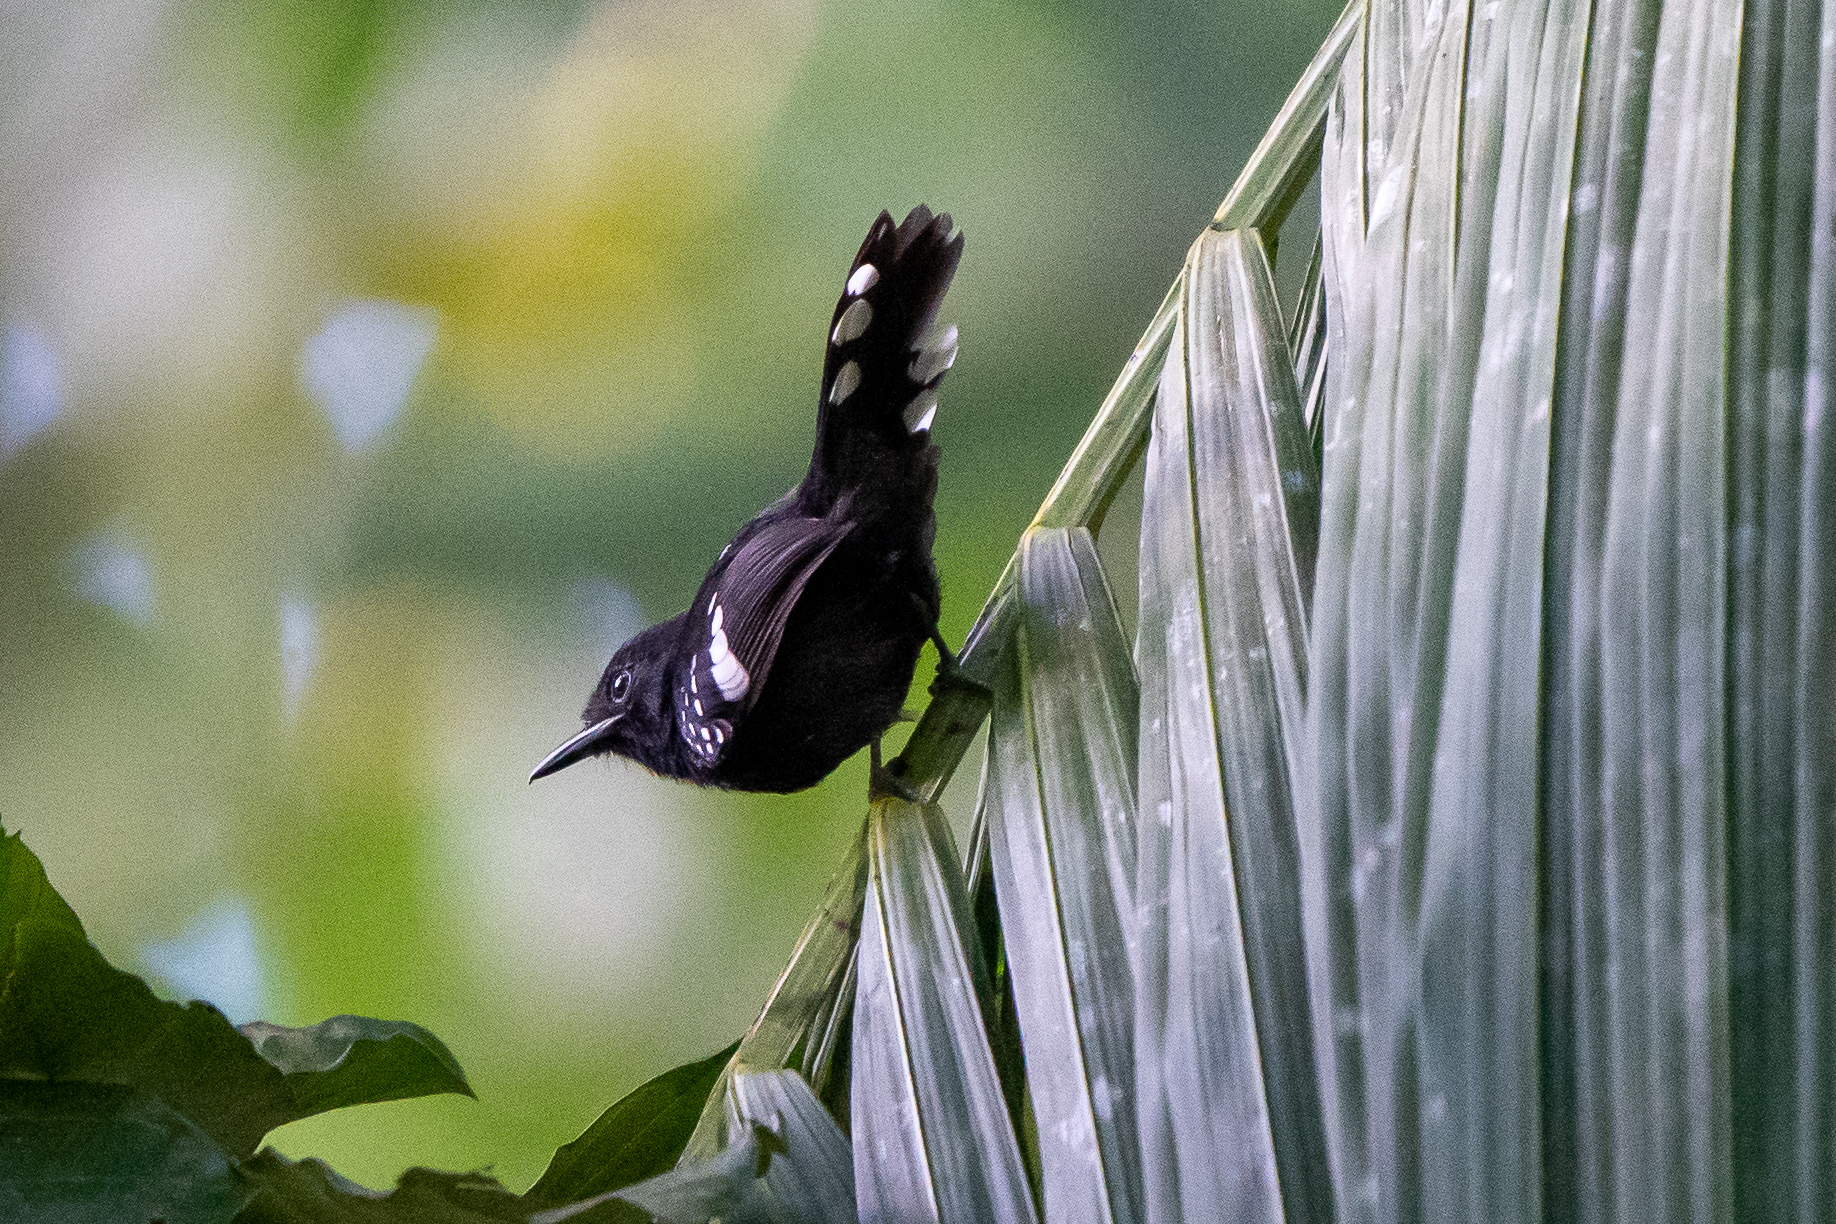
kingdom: Animalia
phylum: Chordata
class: Aves
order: Passeriformes
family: Thamnophilidae
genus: Microrhopias
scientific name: Microrhopias quixensis
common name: Dot-winged antwren
